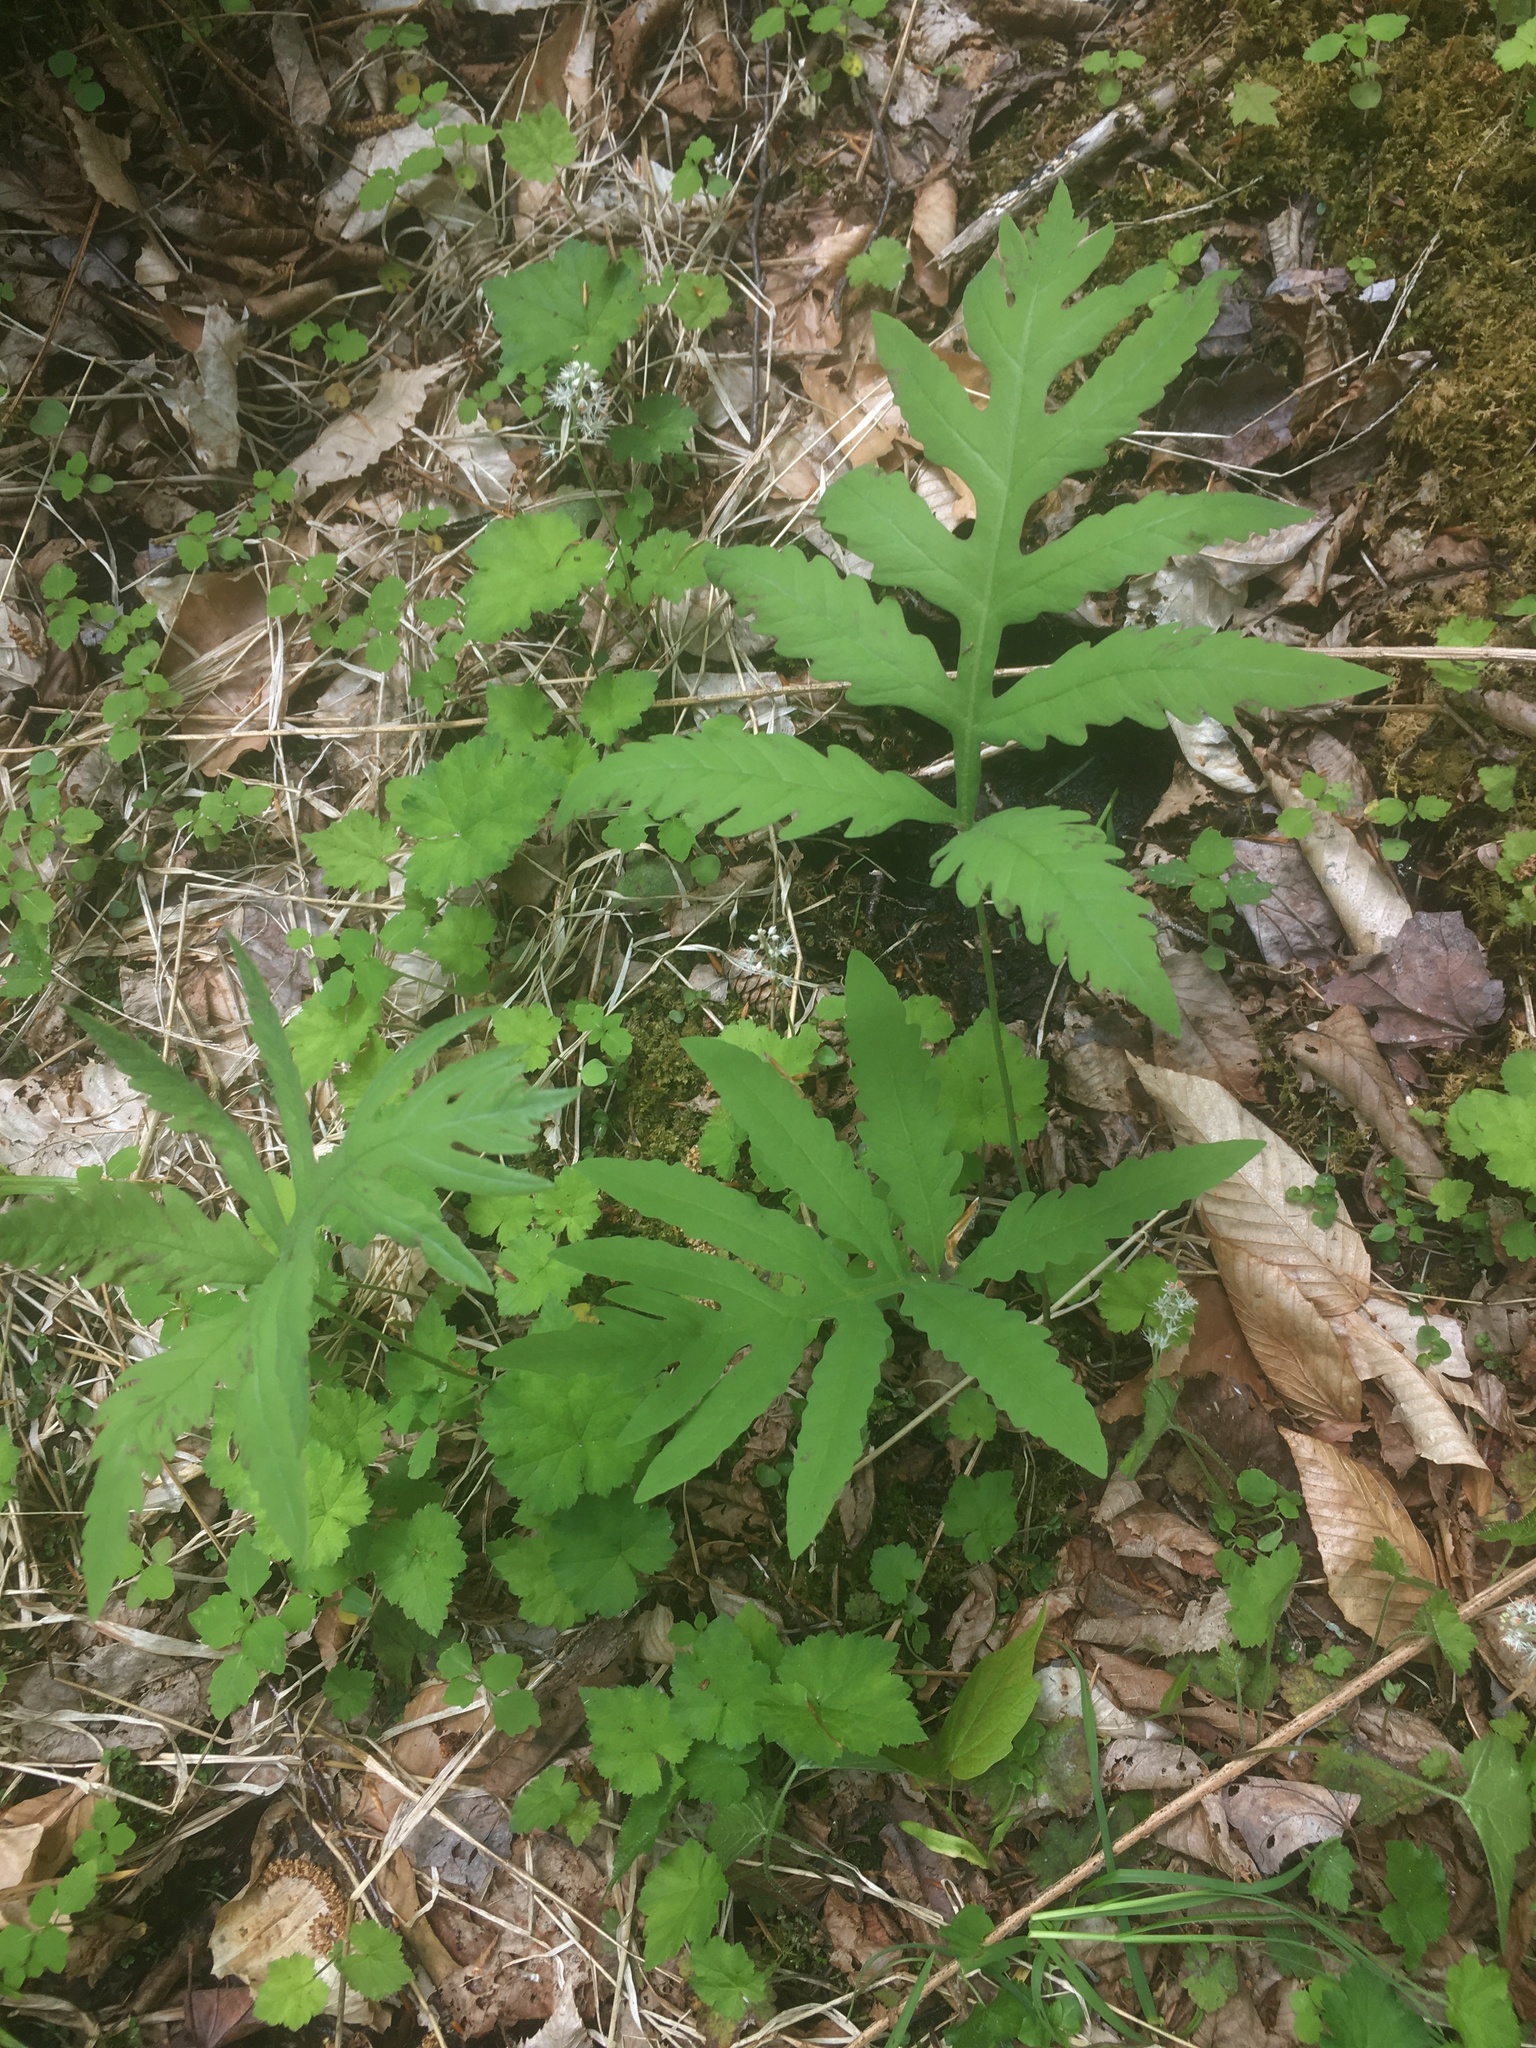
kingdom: Plantae
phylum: Tracheophyta
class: Polypodiopsida
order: Polypodiales
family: Onocleaceae
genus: Onoclea
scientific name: Onoclea sensibilis
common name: Sensitive fern
